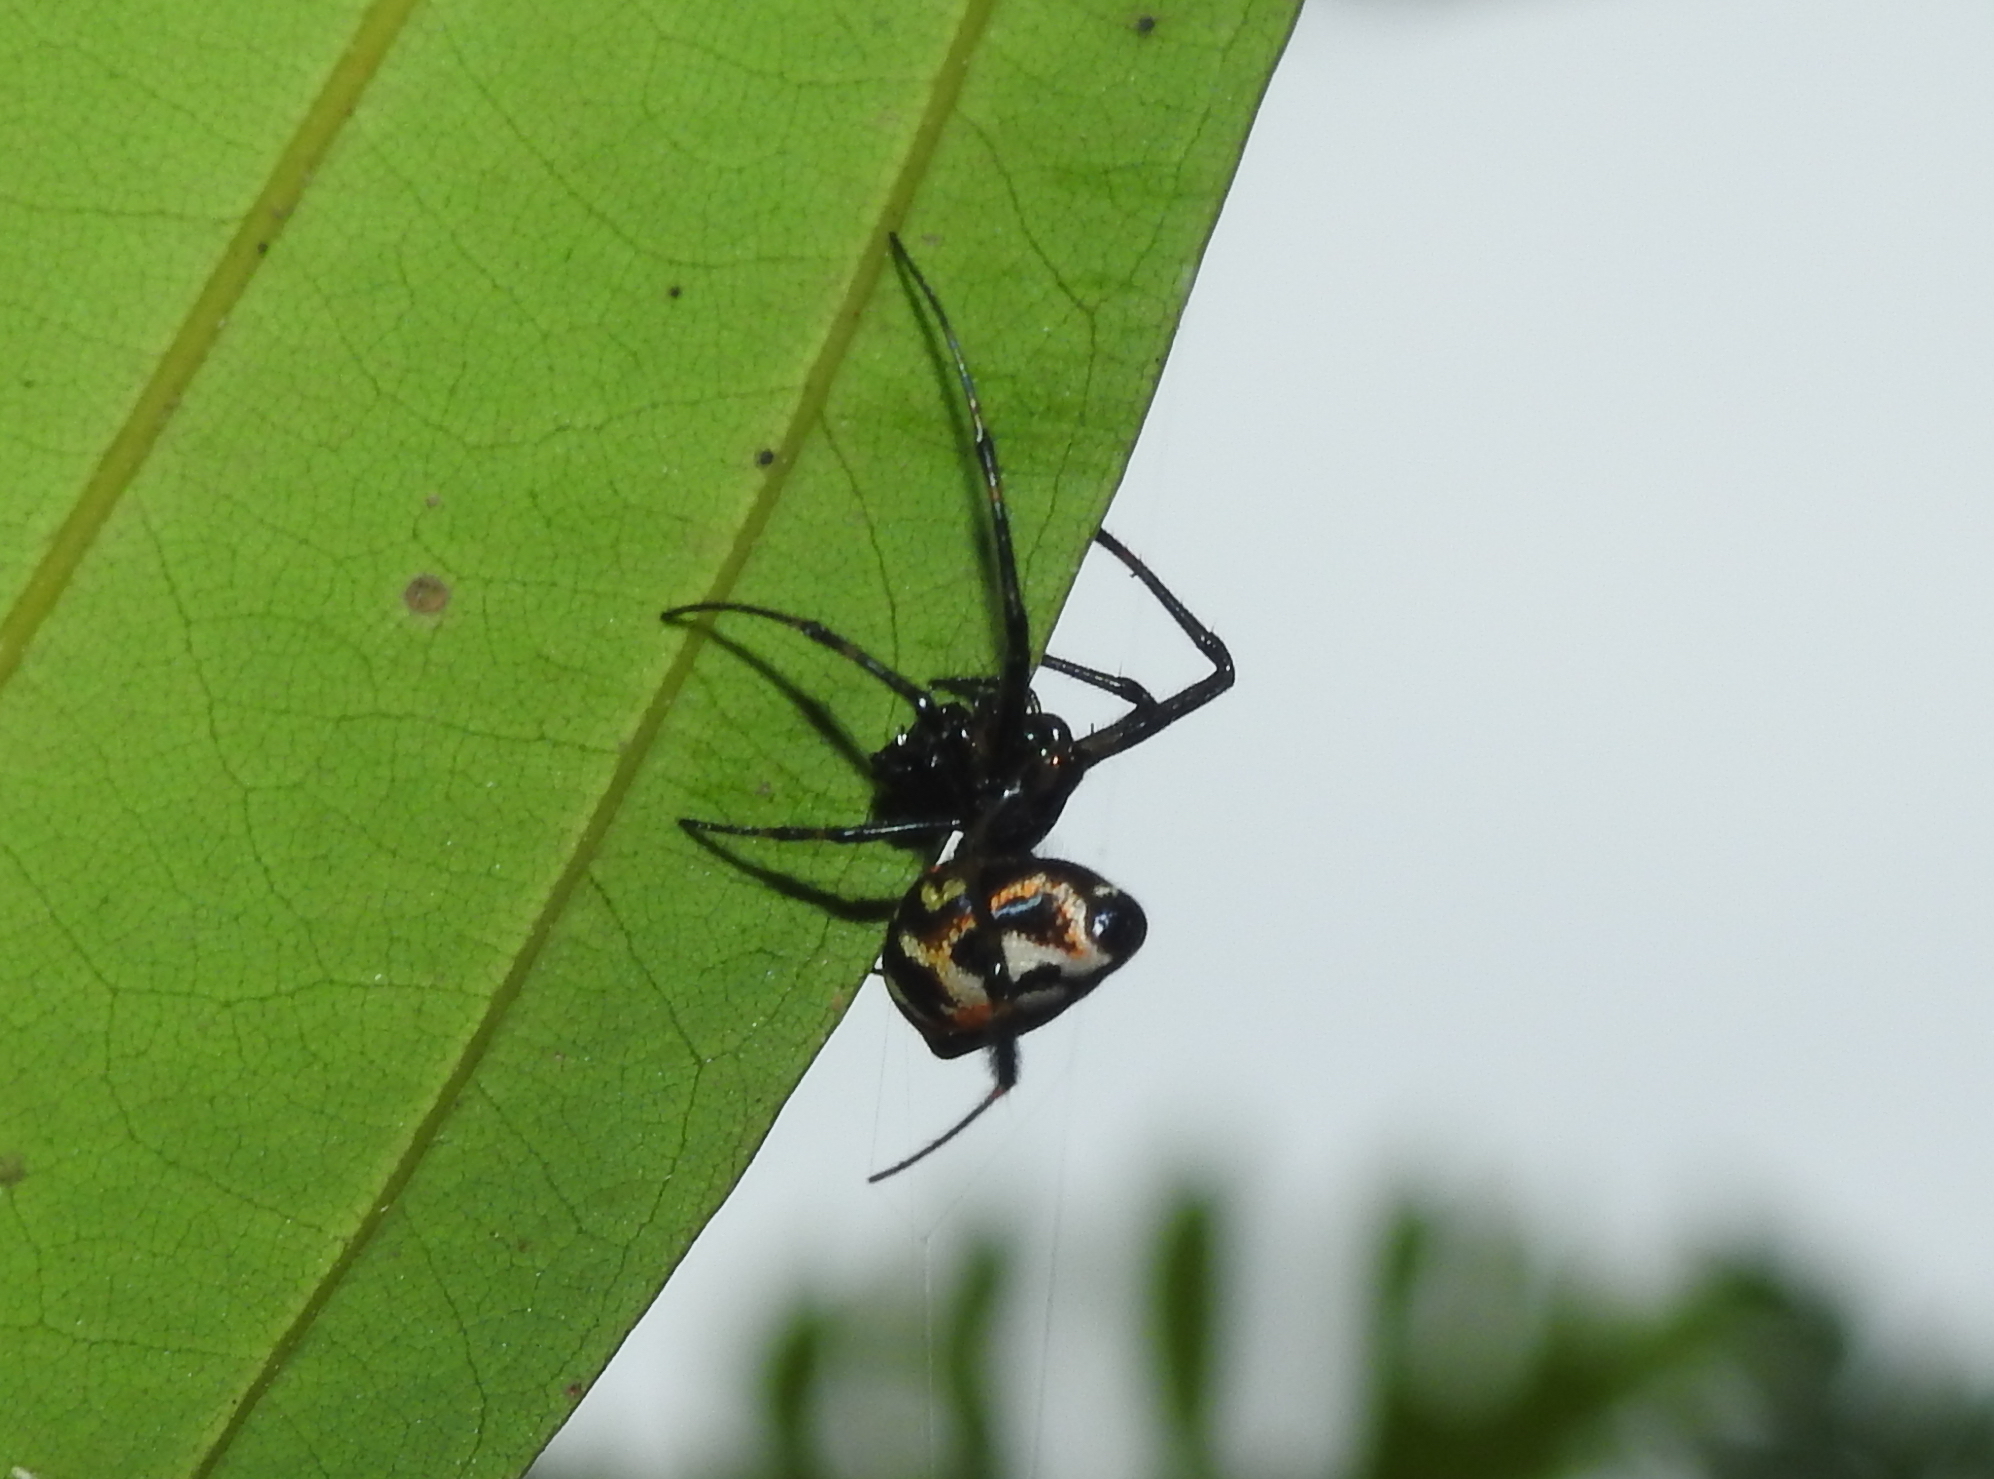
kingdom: Animalia
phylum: Arthropoda
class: Arachnida
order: Araneae
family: Tetragnathidae
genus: Leucauge
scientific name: Leucauge fastigata
